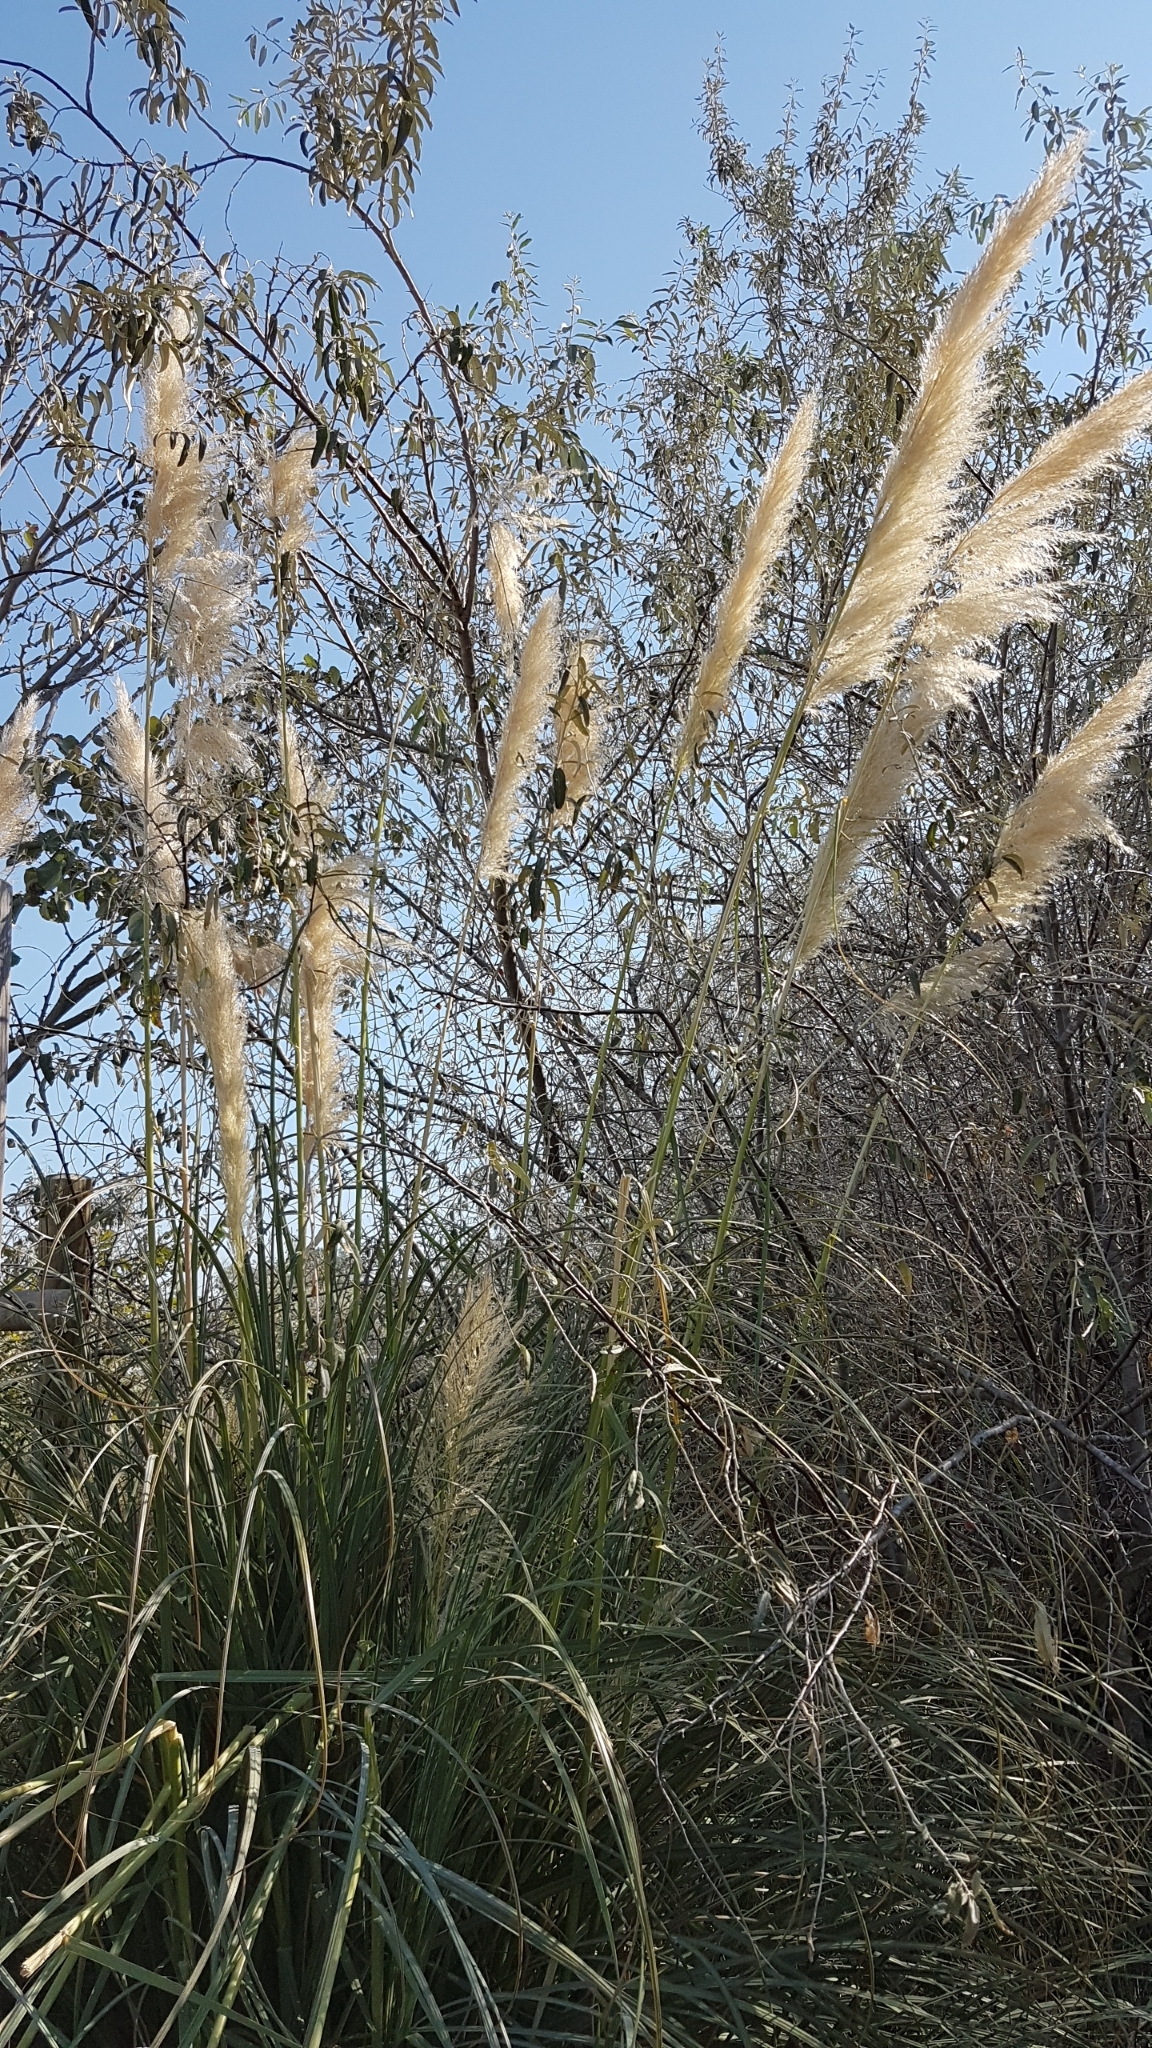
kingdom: Plantae
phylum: Tracheophyta
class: Liliopsida
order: Poales
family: Poaceae
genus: Cortaderia
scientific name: Cortaderia selloana
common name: Uruguayan pampas grass
